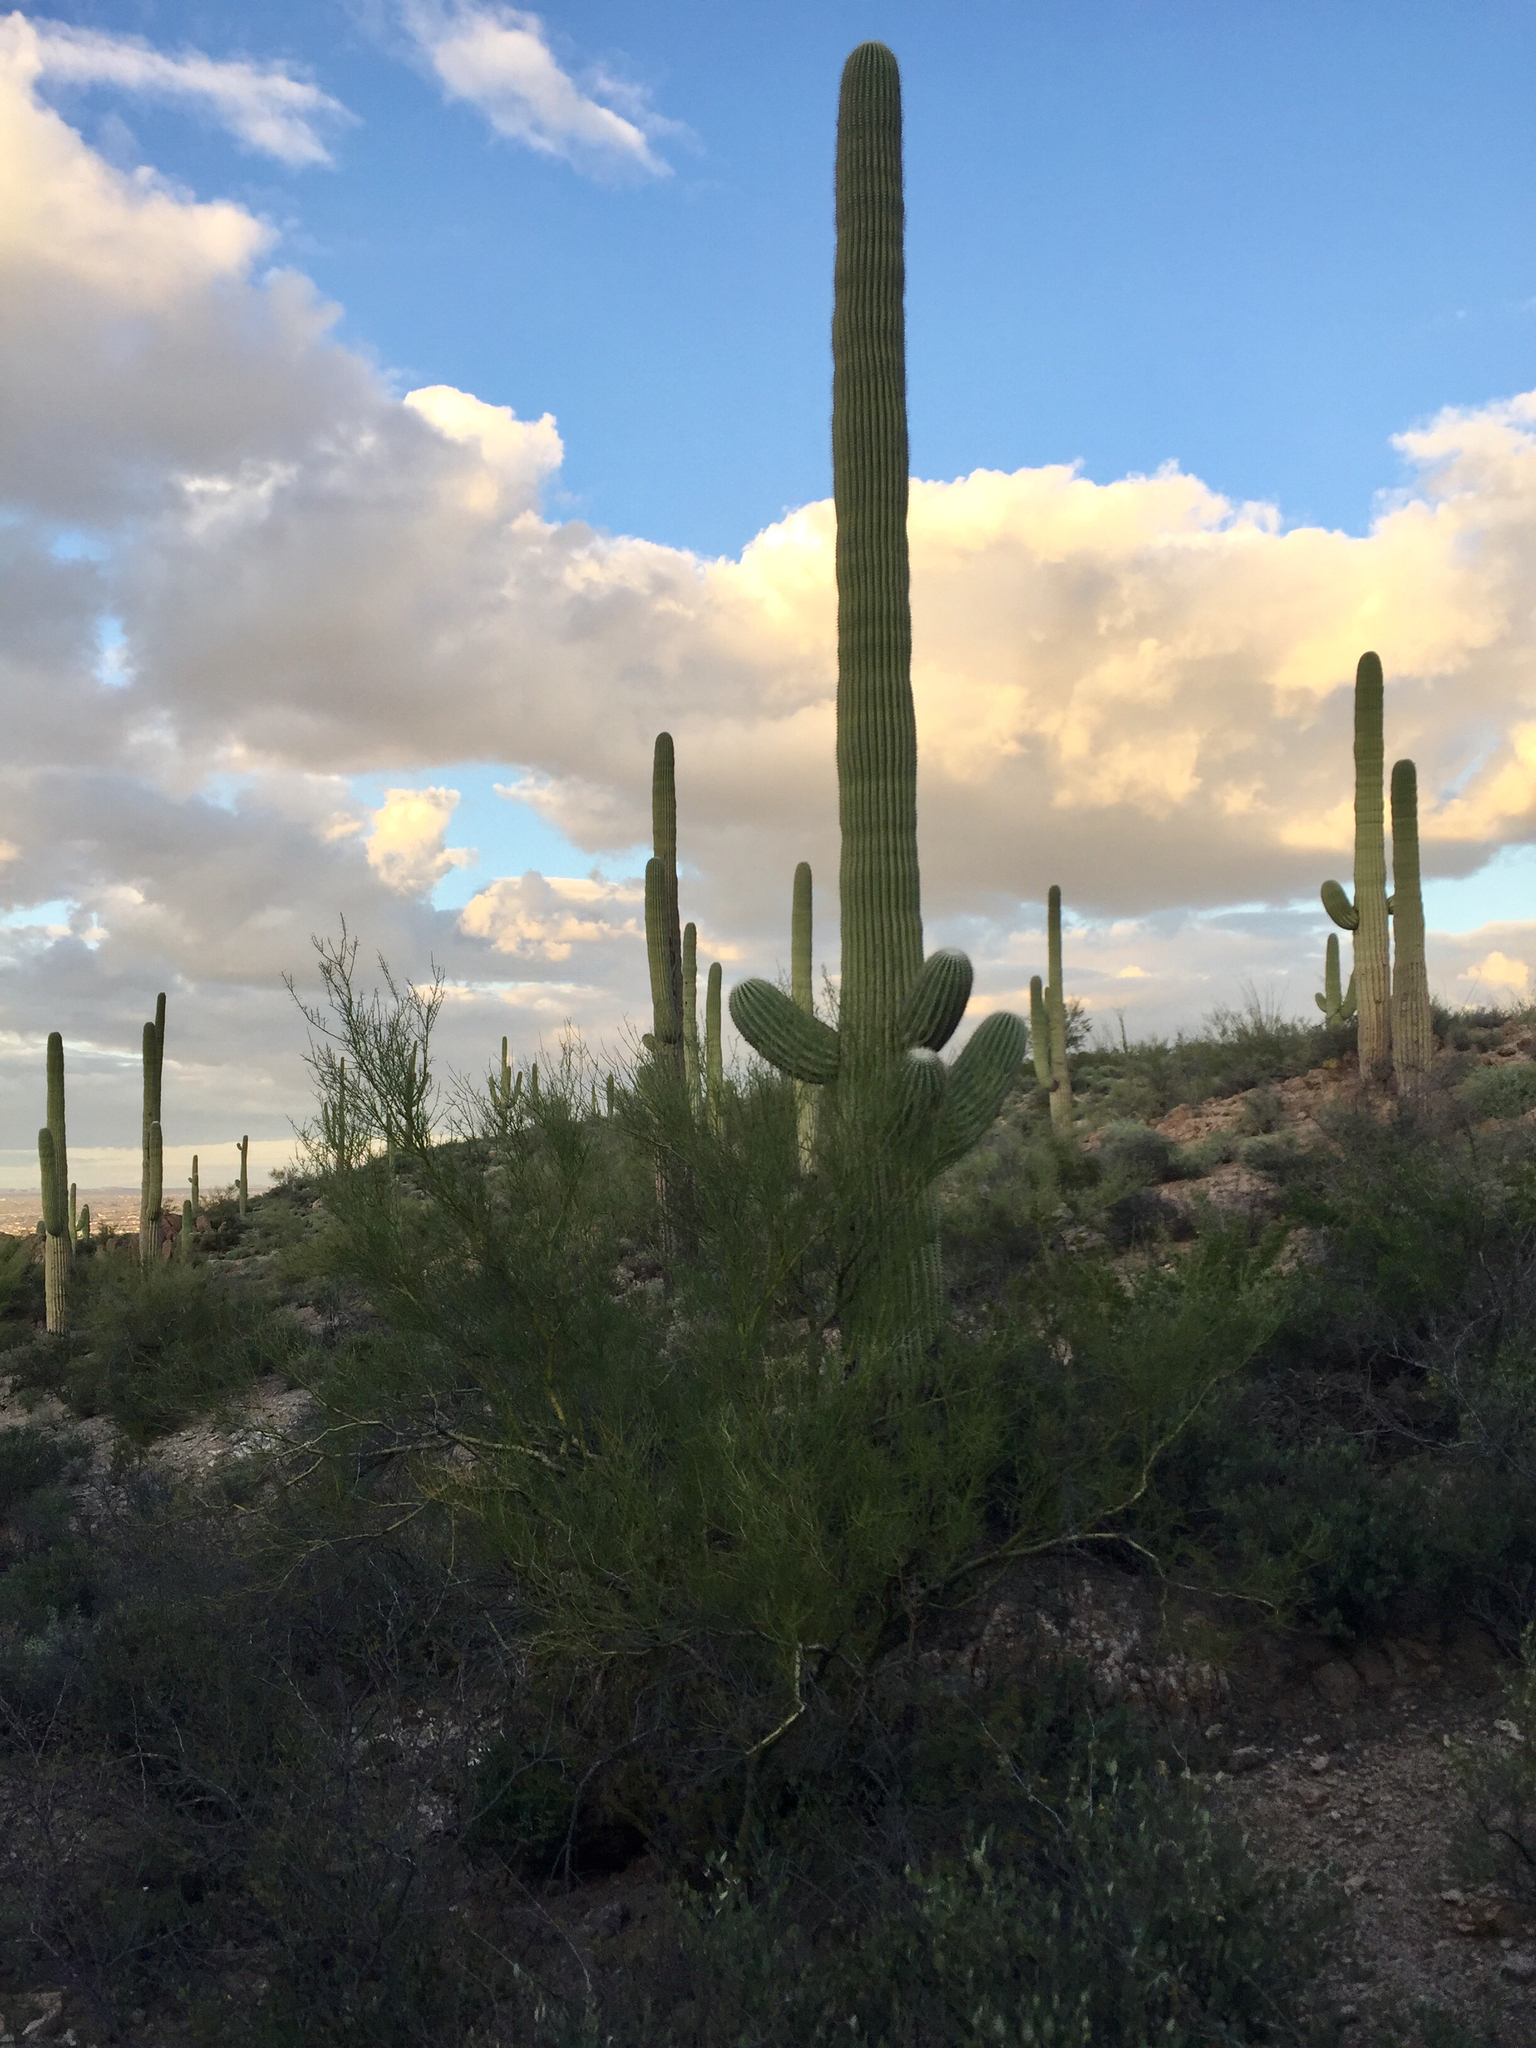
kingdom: Plantae
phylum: Tracheophyta
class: Magnoliopsida
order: Fabales
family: Fabaceae
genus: Parkinsonia
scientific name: Parkinsonia microphylla
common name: Yellow paloverde
